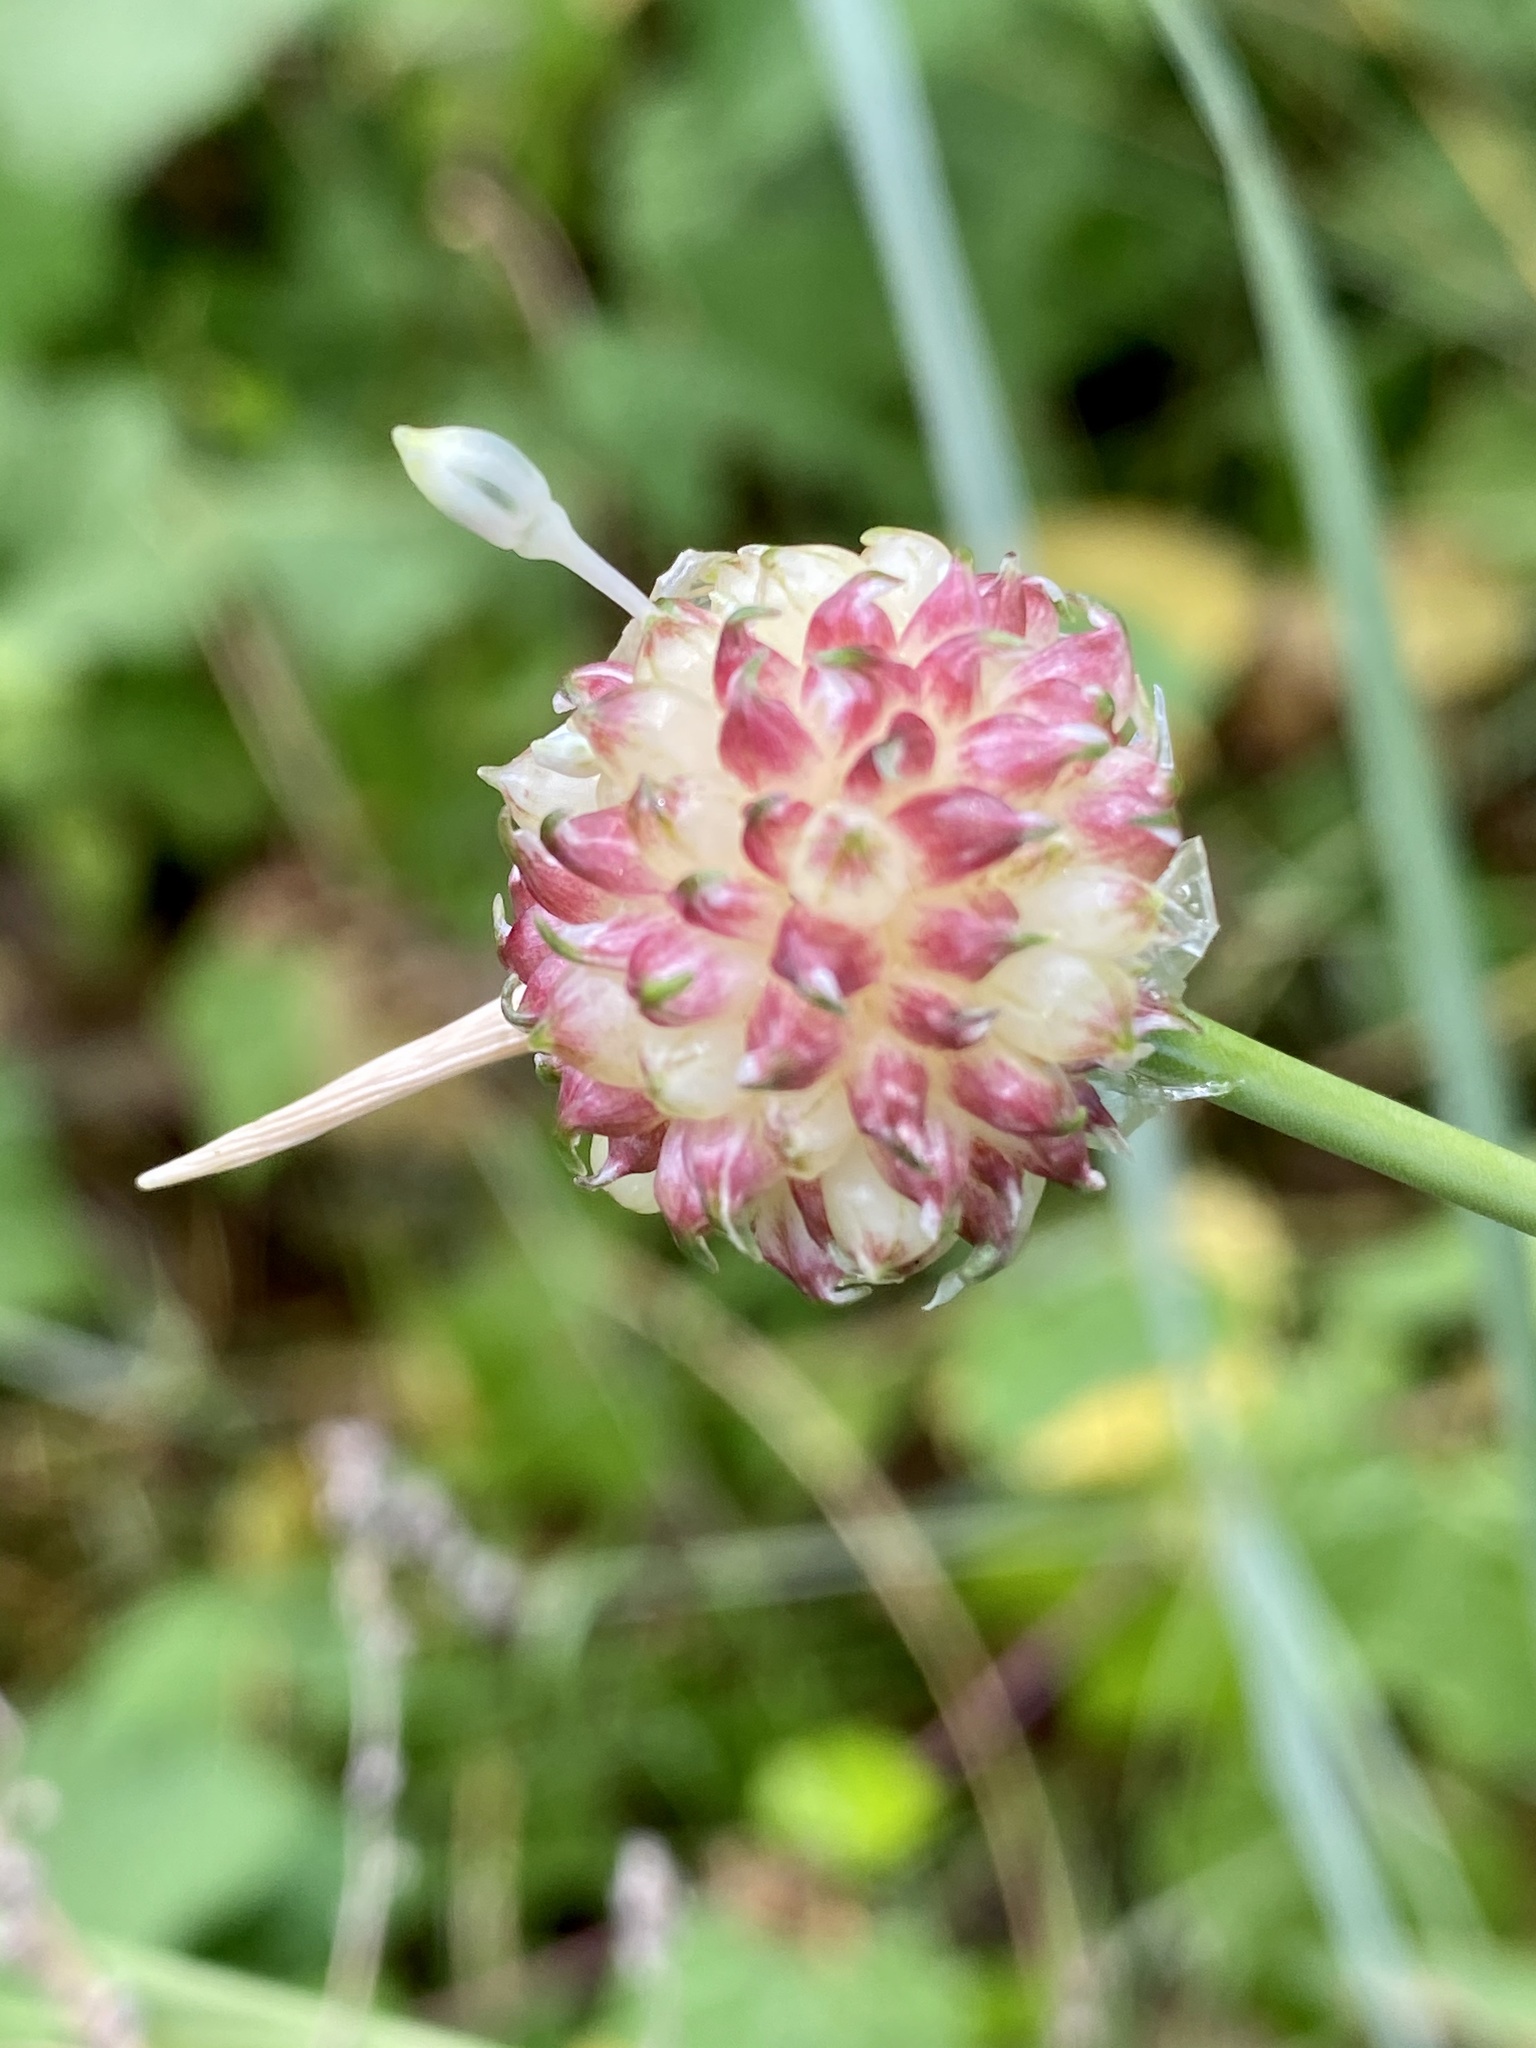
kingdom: Plantae
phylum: Tracheophyta
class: Liliopsida
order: Asparagales
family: Amaryllidaceae
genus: Allium
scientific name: Allium vineale
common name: Crow garlic
